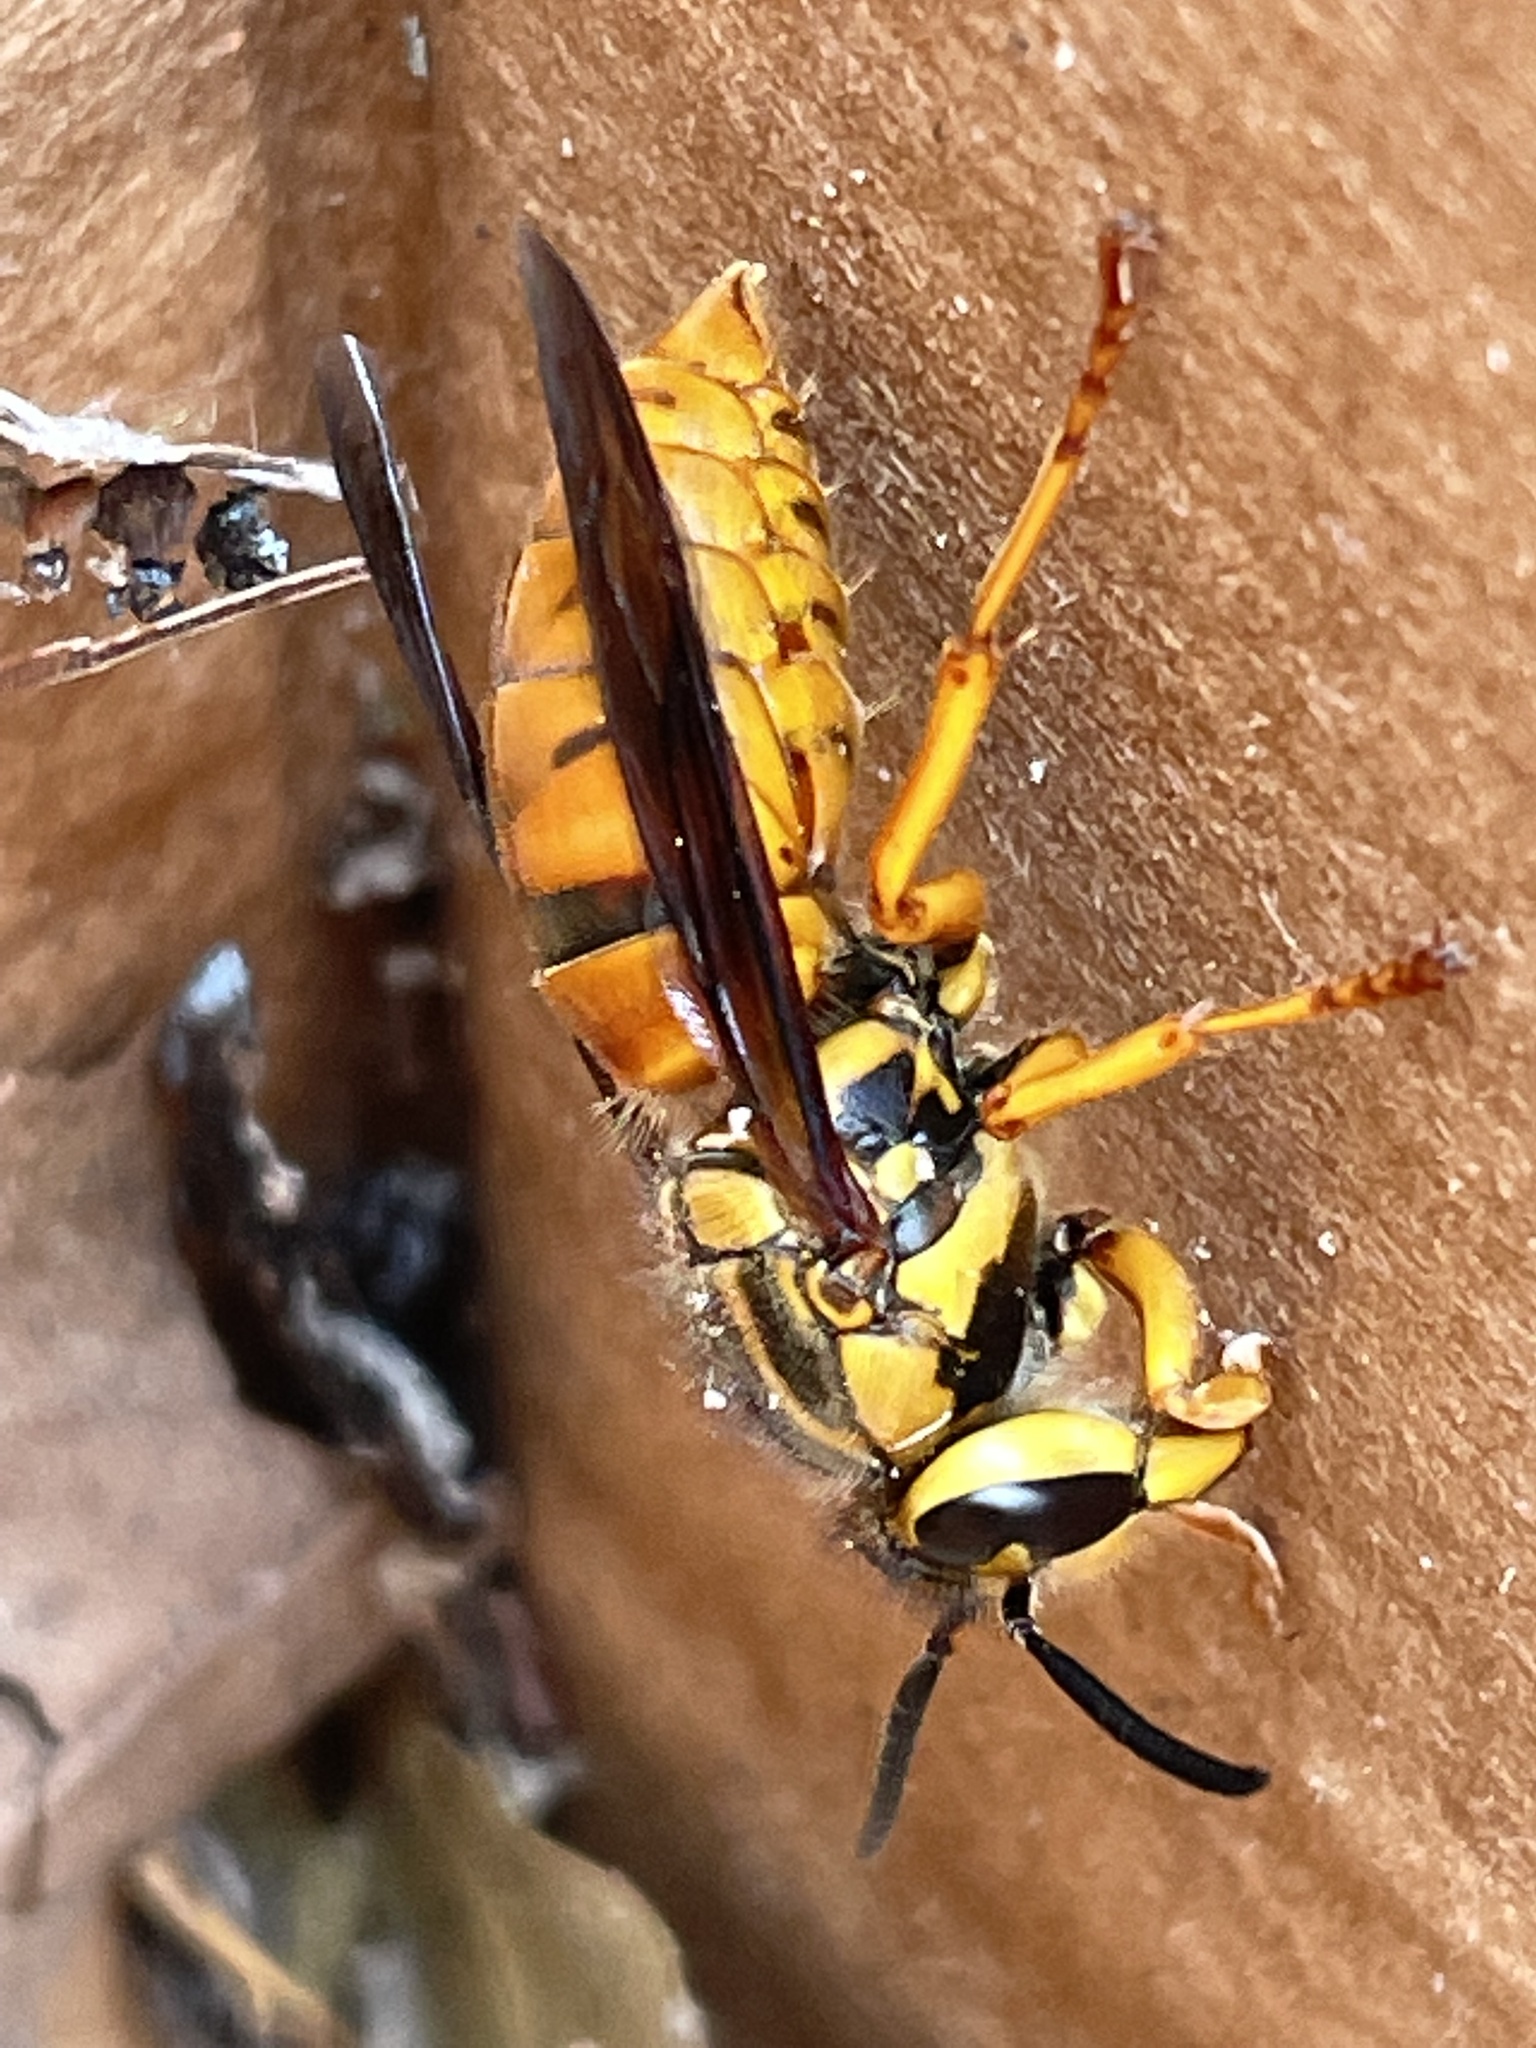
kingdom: Animalia
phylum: Arthropoda
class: Insecta
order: Hymenoptera
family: Vespidae
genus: Vespula
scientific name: Vespula squamosa
